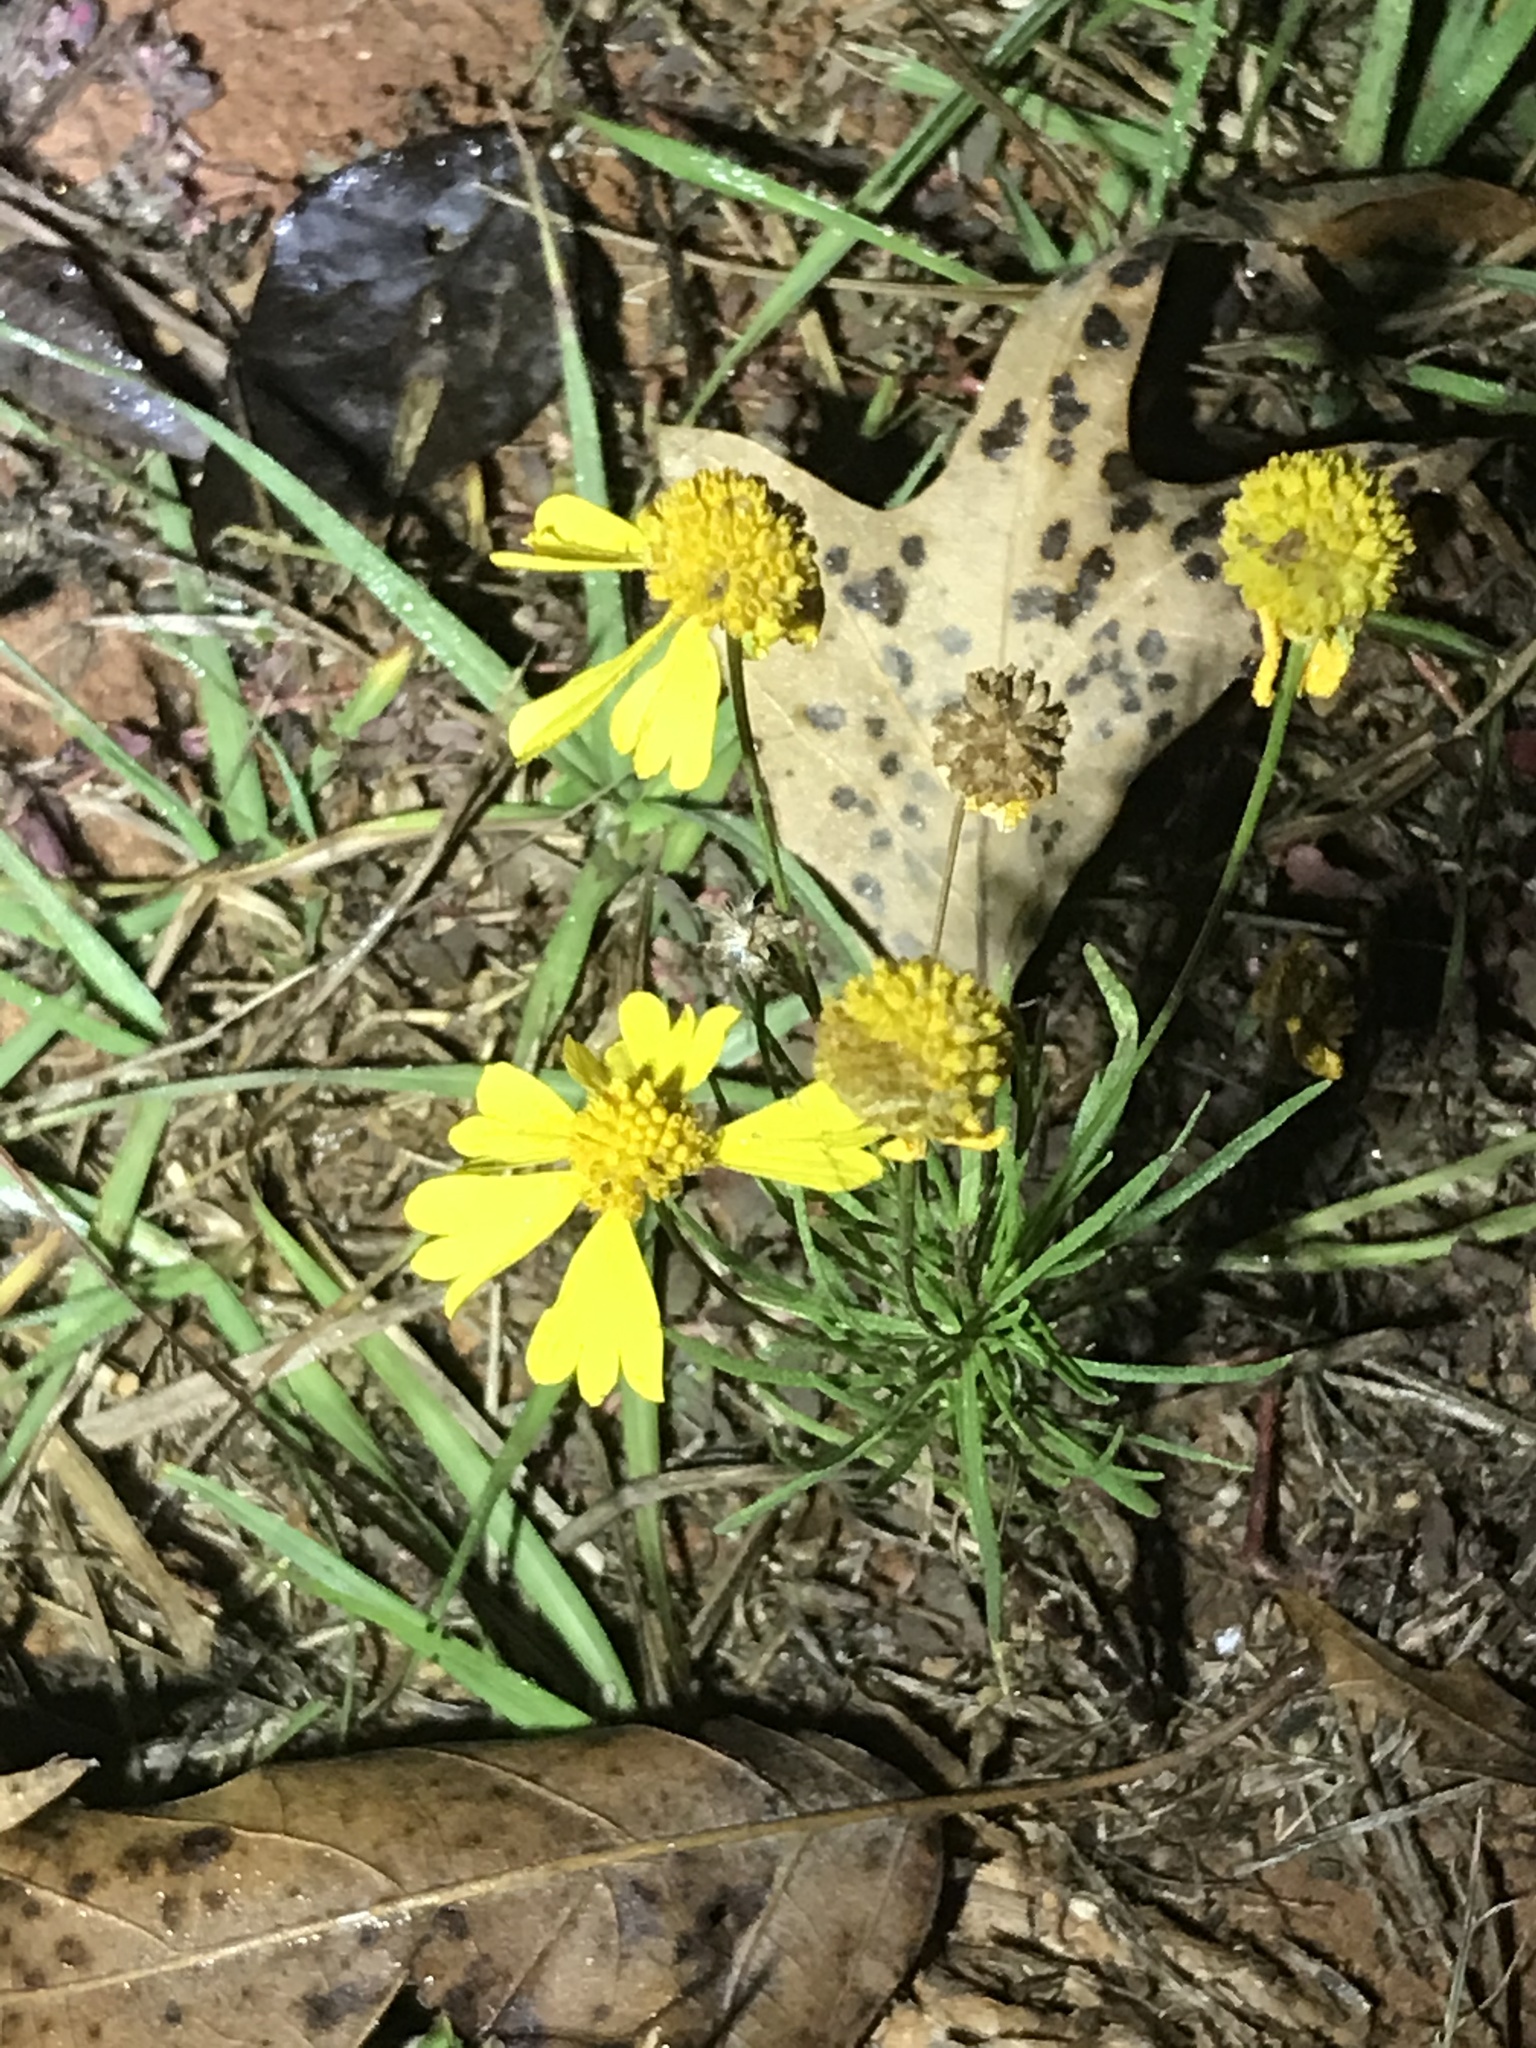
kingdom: Plantae
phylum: Tracheophyta
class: Magnoliopsida
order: Asterales
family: Asteraceae
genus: Helenium
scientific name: Helenium amarum
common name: Bitter sneezeweed
